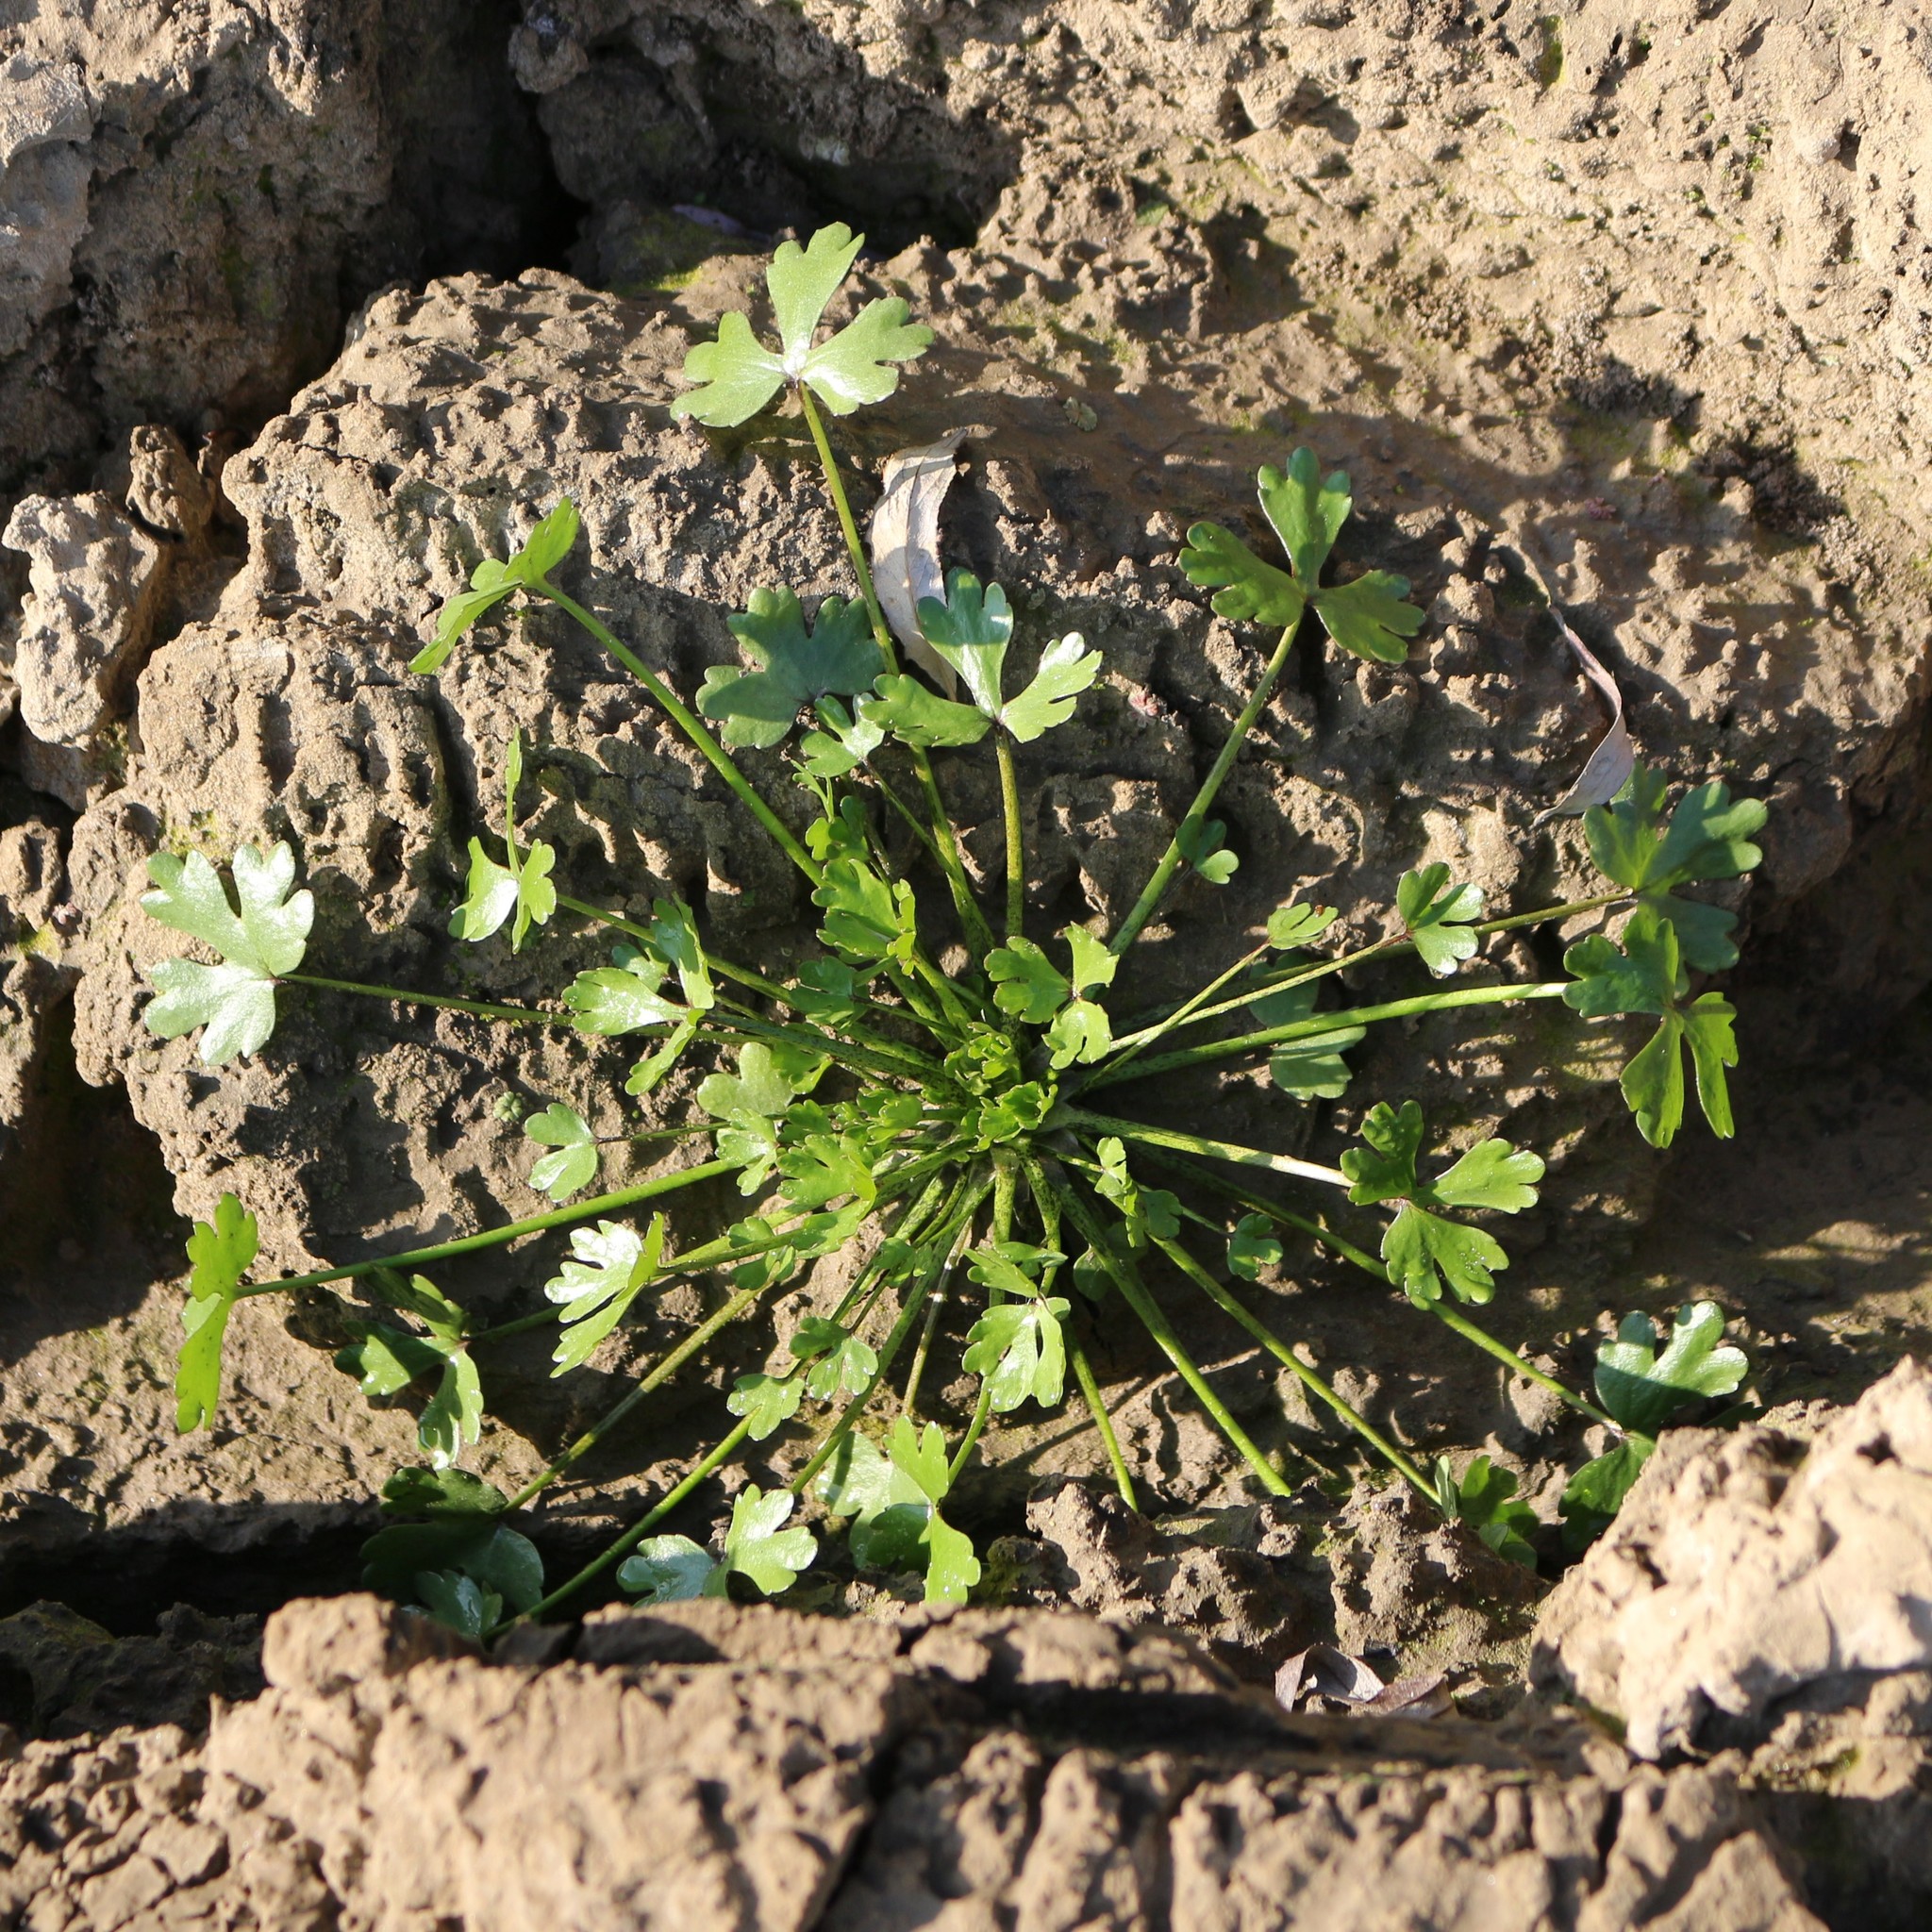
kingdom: Plantae
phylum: Tracheophyta
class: Magnoliopsida
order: Ranunculales
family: Ranunculaceae
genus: Ranunculus
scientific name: Ranunculus sceleratus
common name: Celery-leaved buttercup
